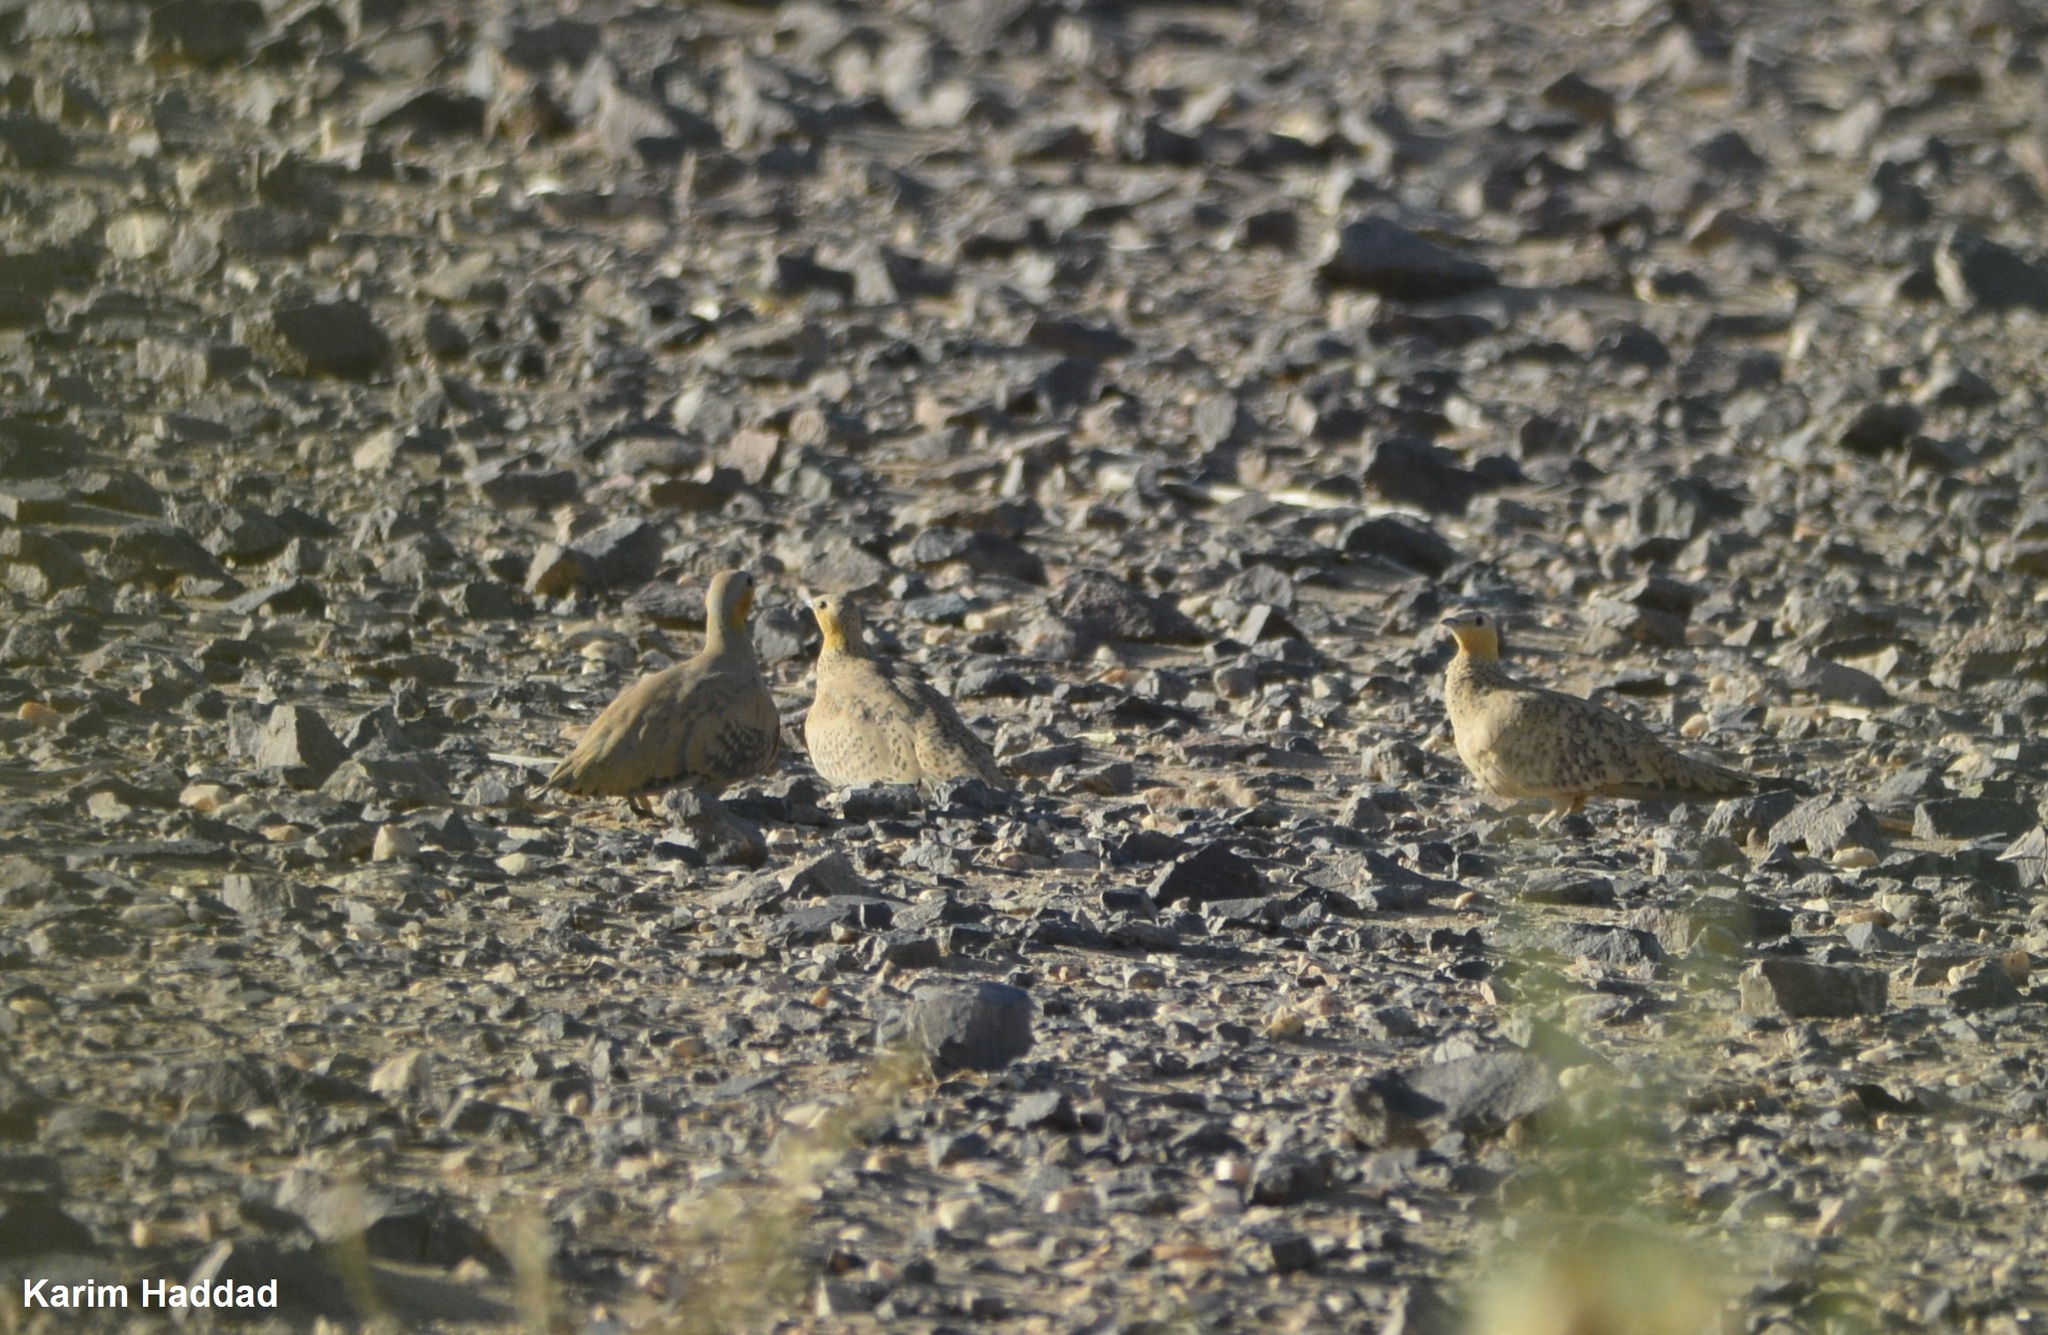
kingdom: Animalia
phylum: Chordata
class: Aves
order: Pteroclidiformes
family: Pteroclididae
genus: Pterocles
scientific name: Pterocles senegallus
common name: Spotted sandgrouse
